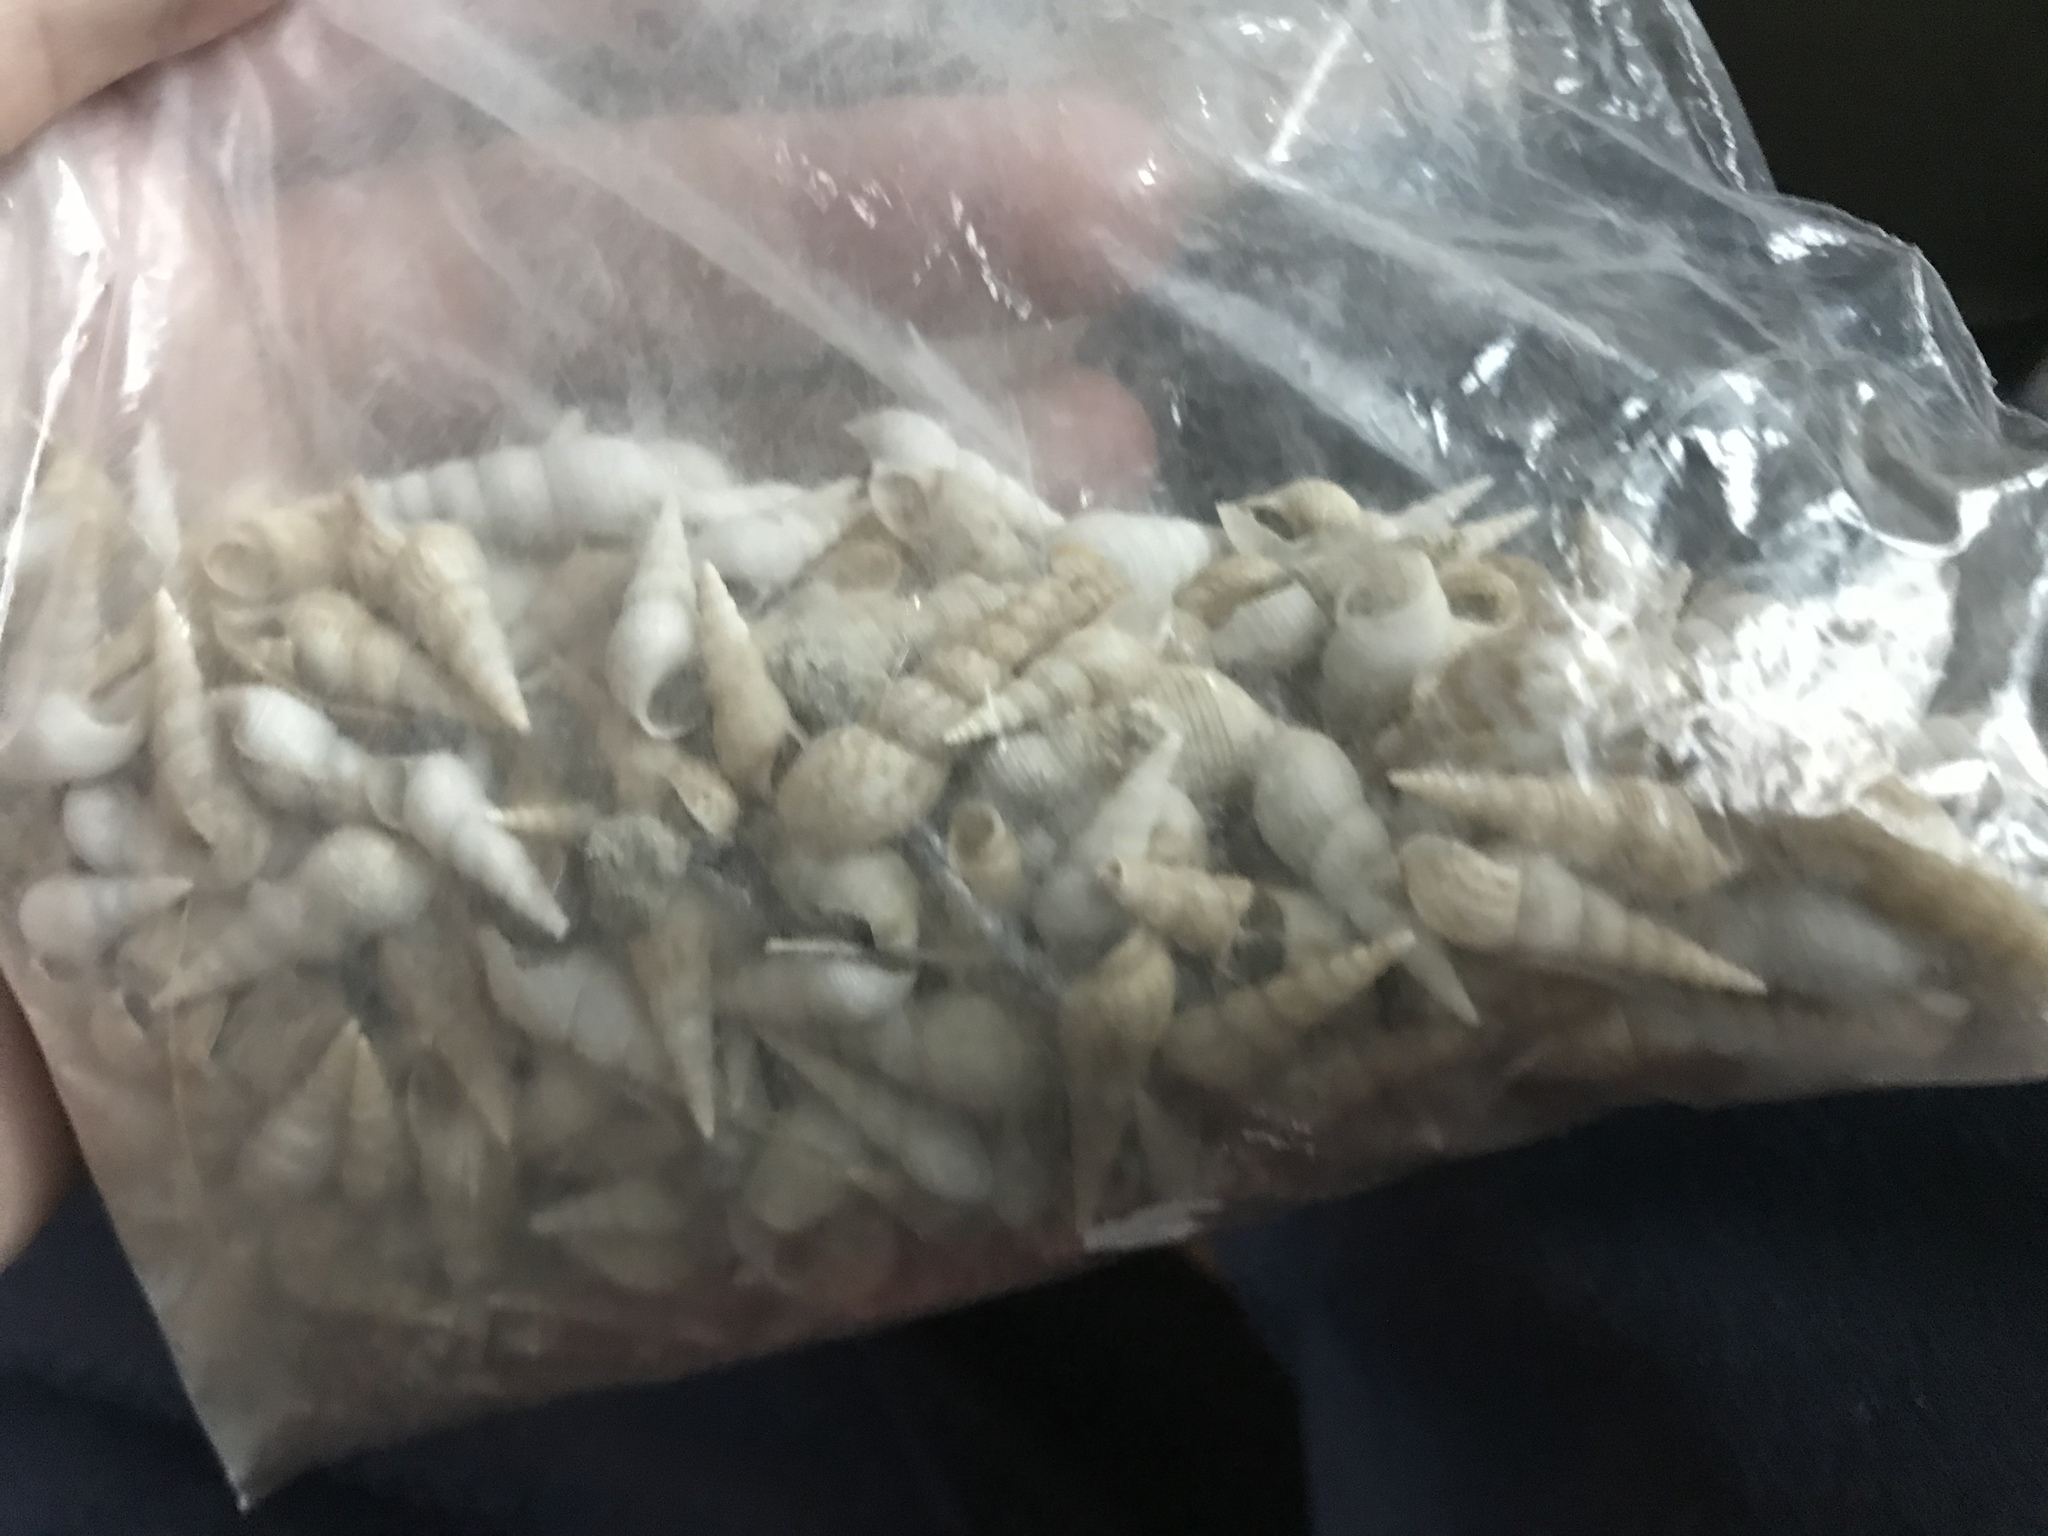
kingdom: Animalia
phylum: Mollusca
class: Gastropoda
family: Thiaridae
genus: Melanoides
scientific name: Melanoides tuberculata
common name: Red-rim melania
